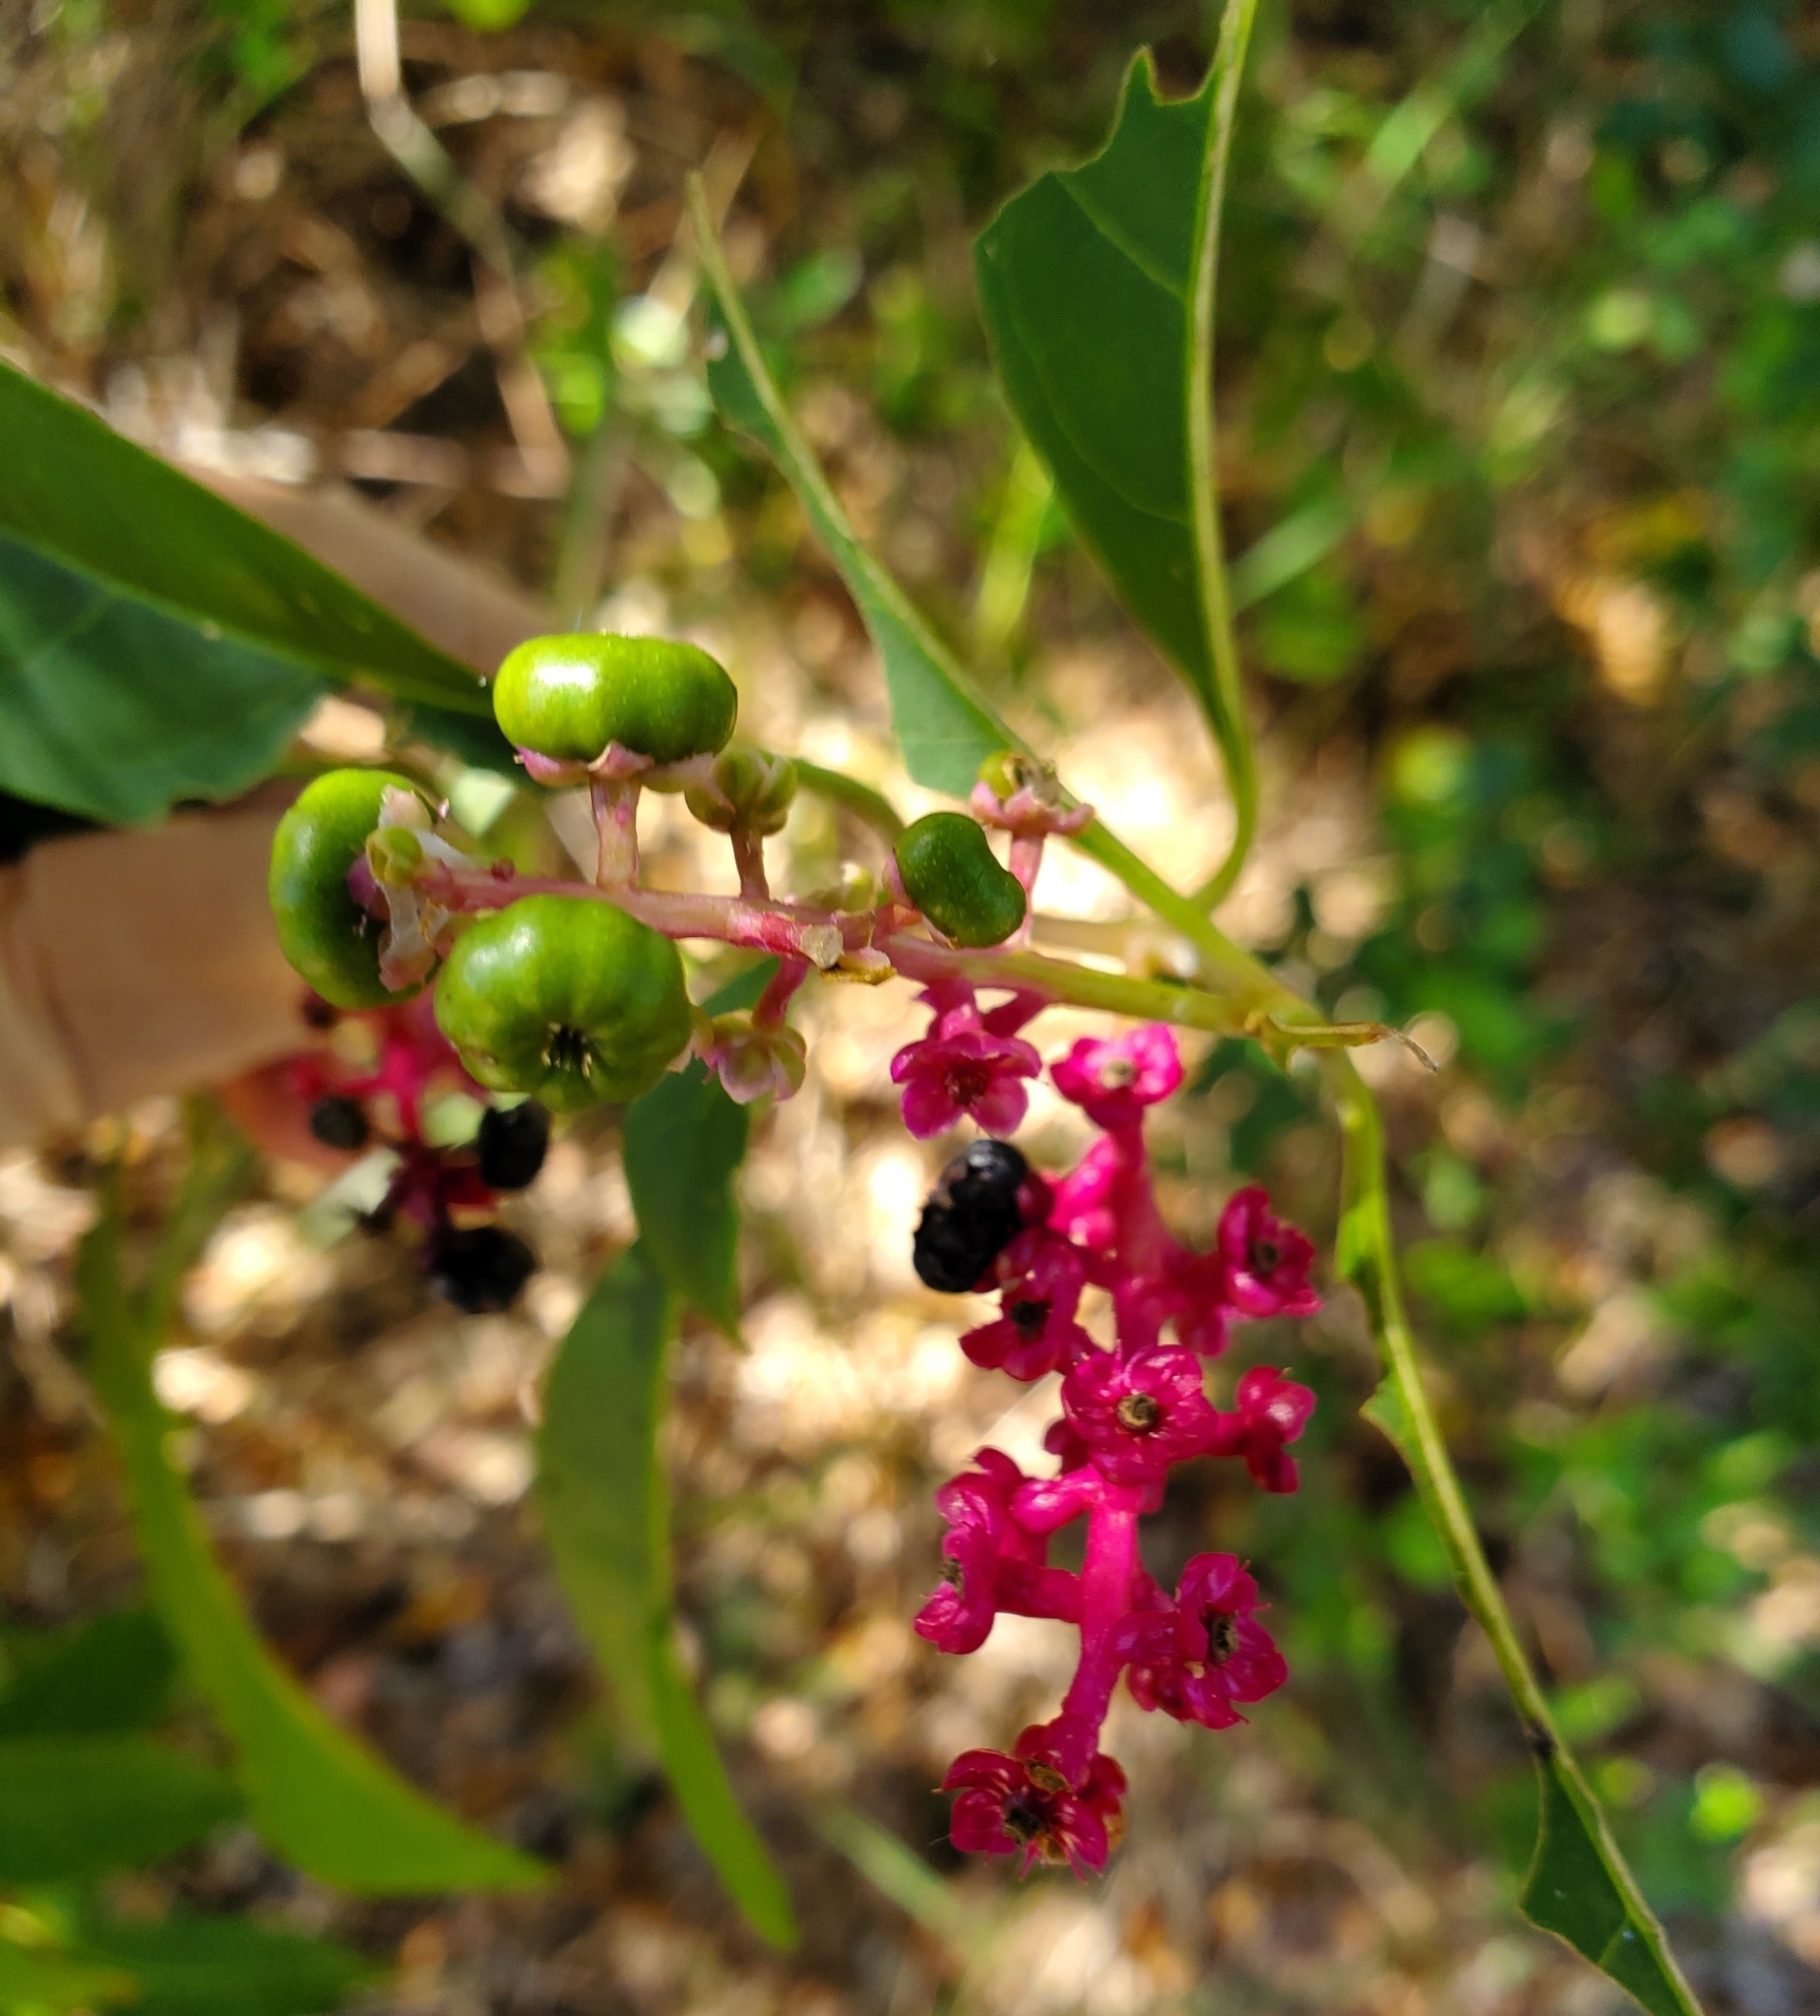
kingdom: Plantae
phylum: Tracheophyta
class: Magnoliopsida
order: Caryophyllales
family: Phytolaccaceae
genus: Phytolacca
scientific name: Phytolacca americana
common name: American pokeweed
